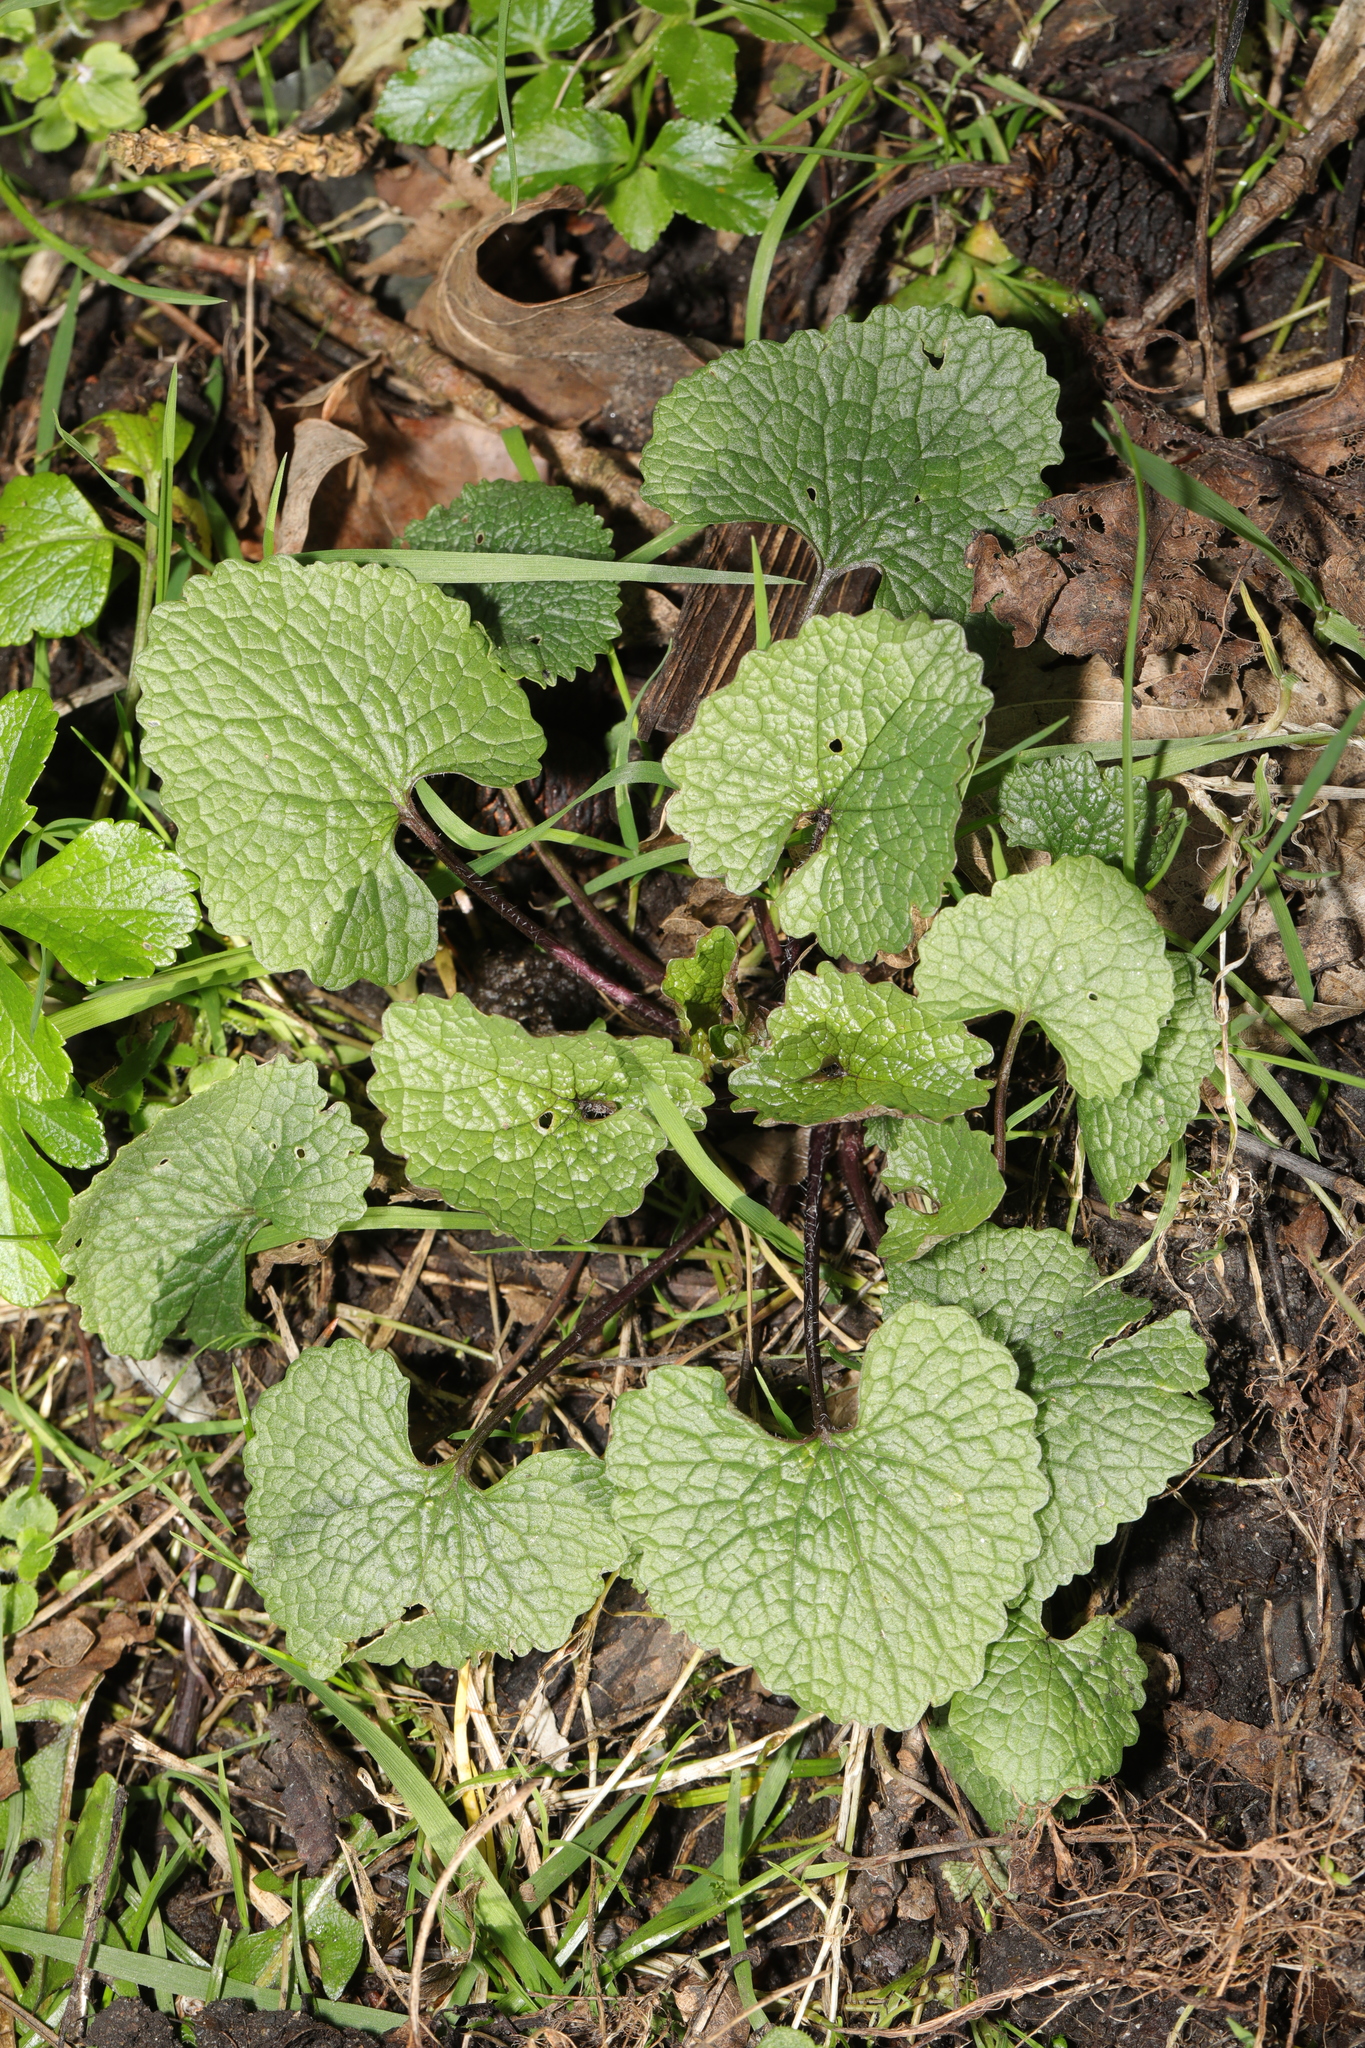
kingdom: Plantae
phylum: Tracheophyta
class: Magnoliopsida
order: Brassicales
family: Brassicaceae
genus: Alliaria
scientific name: Alliaria petiolata
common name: Garlic mustard
